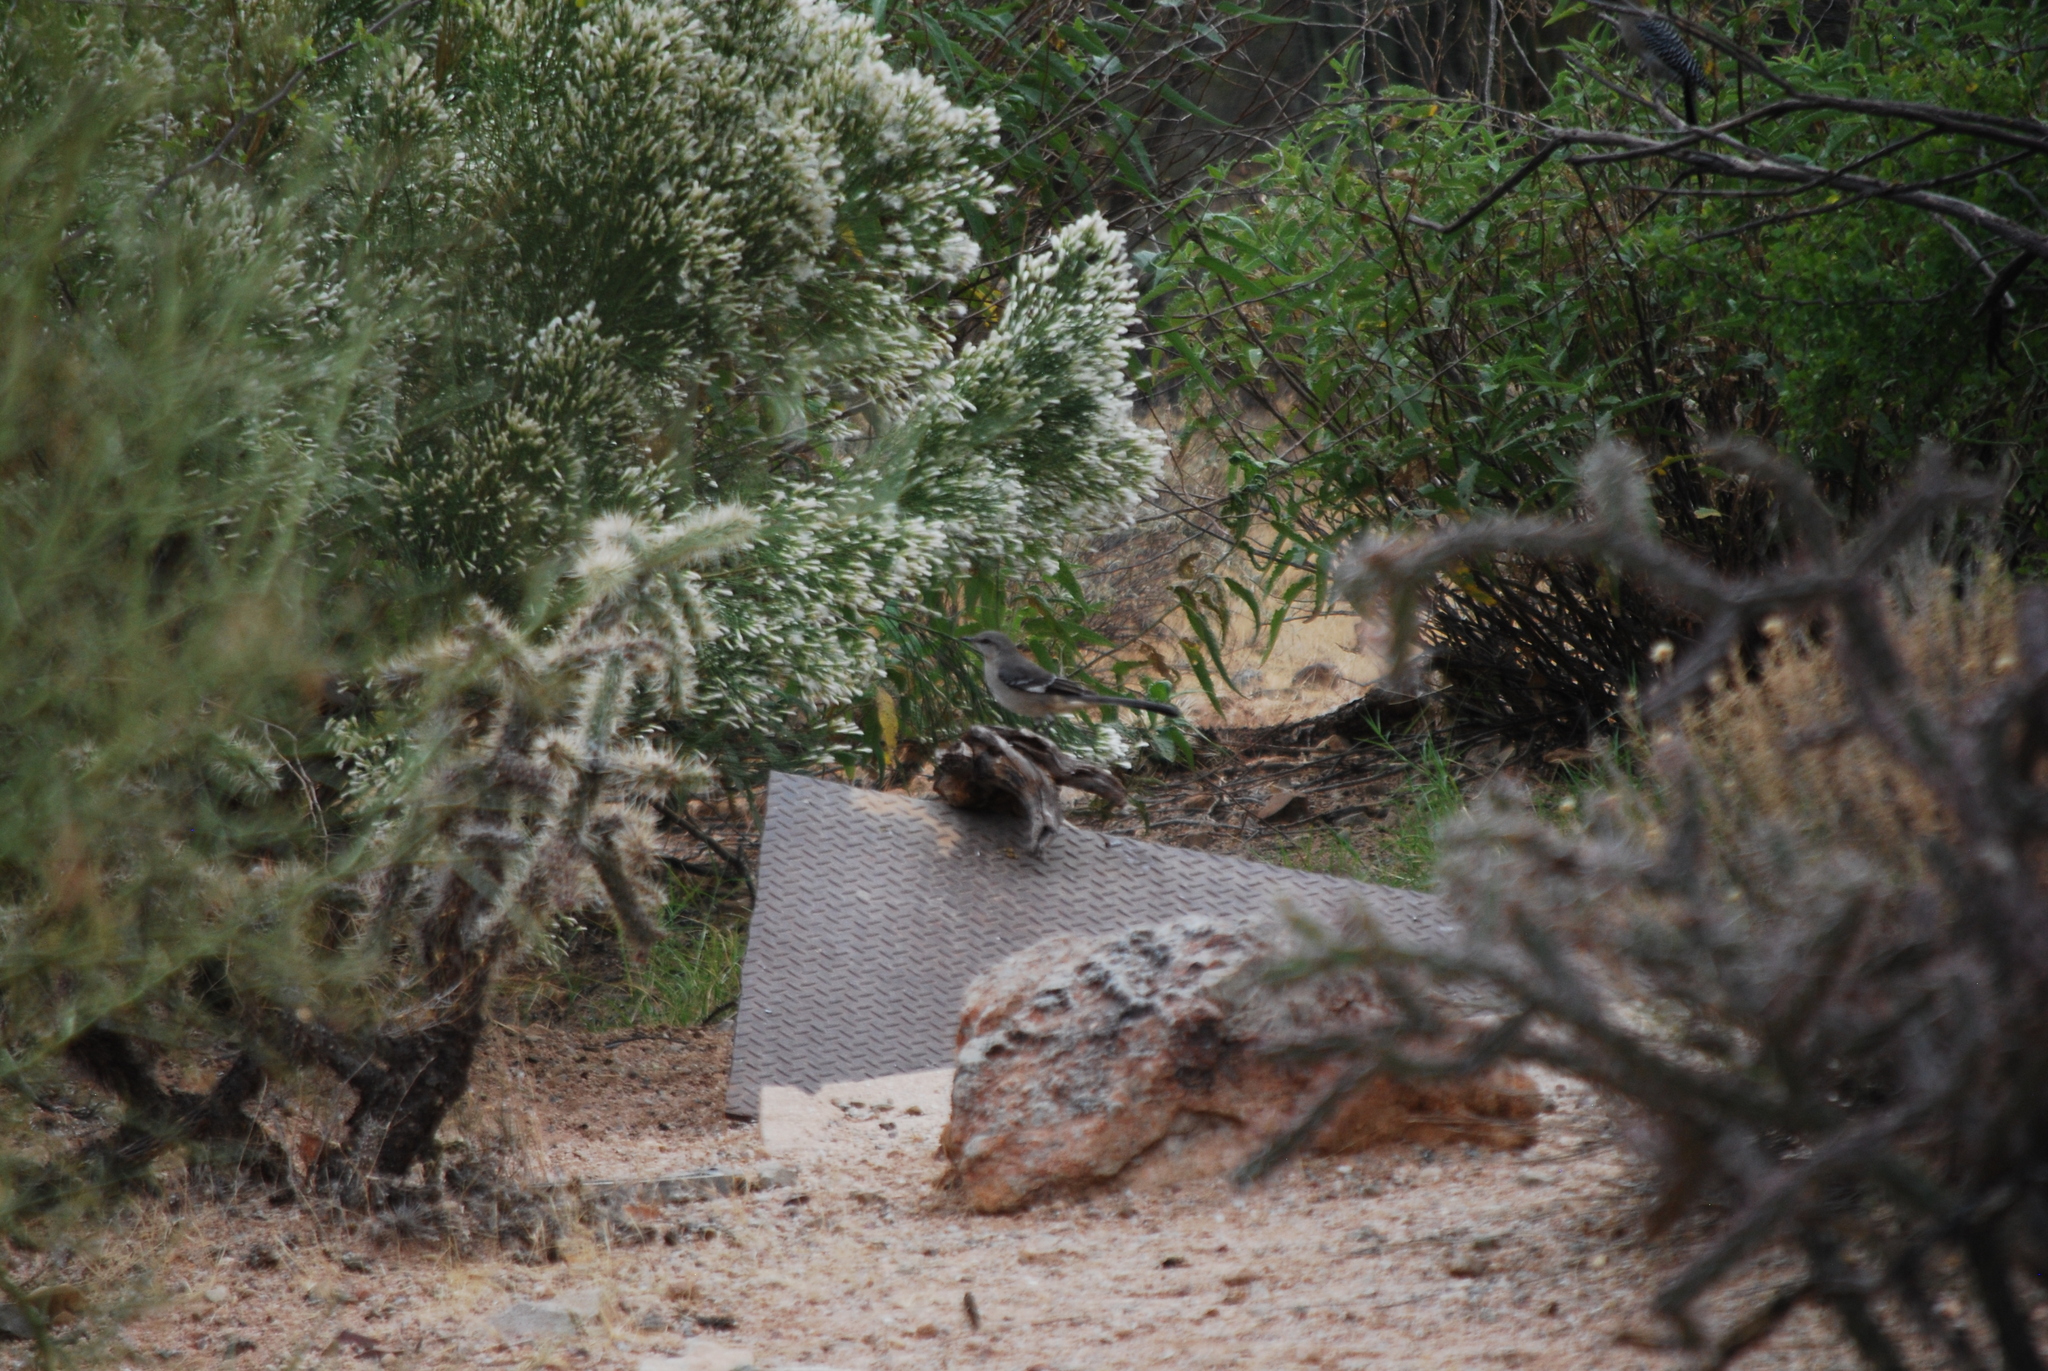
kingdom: Animalia
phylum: Chordata
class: Aves
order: Passeriformes
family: Mimidae
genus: Mimus
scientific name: Mimus polyglottos
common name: Northern mockingbird
